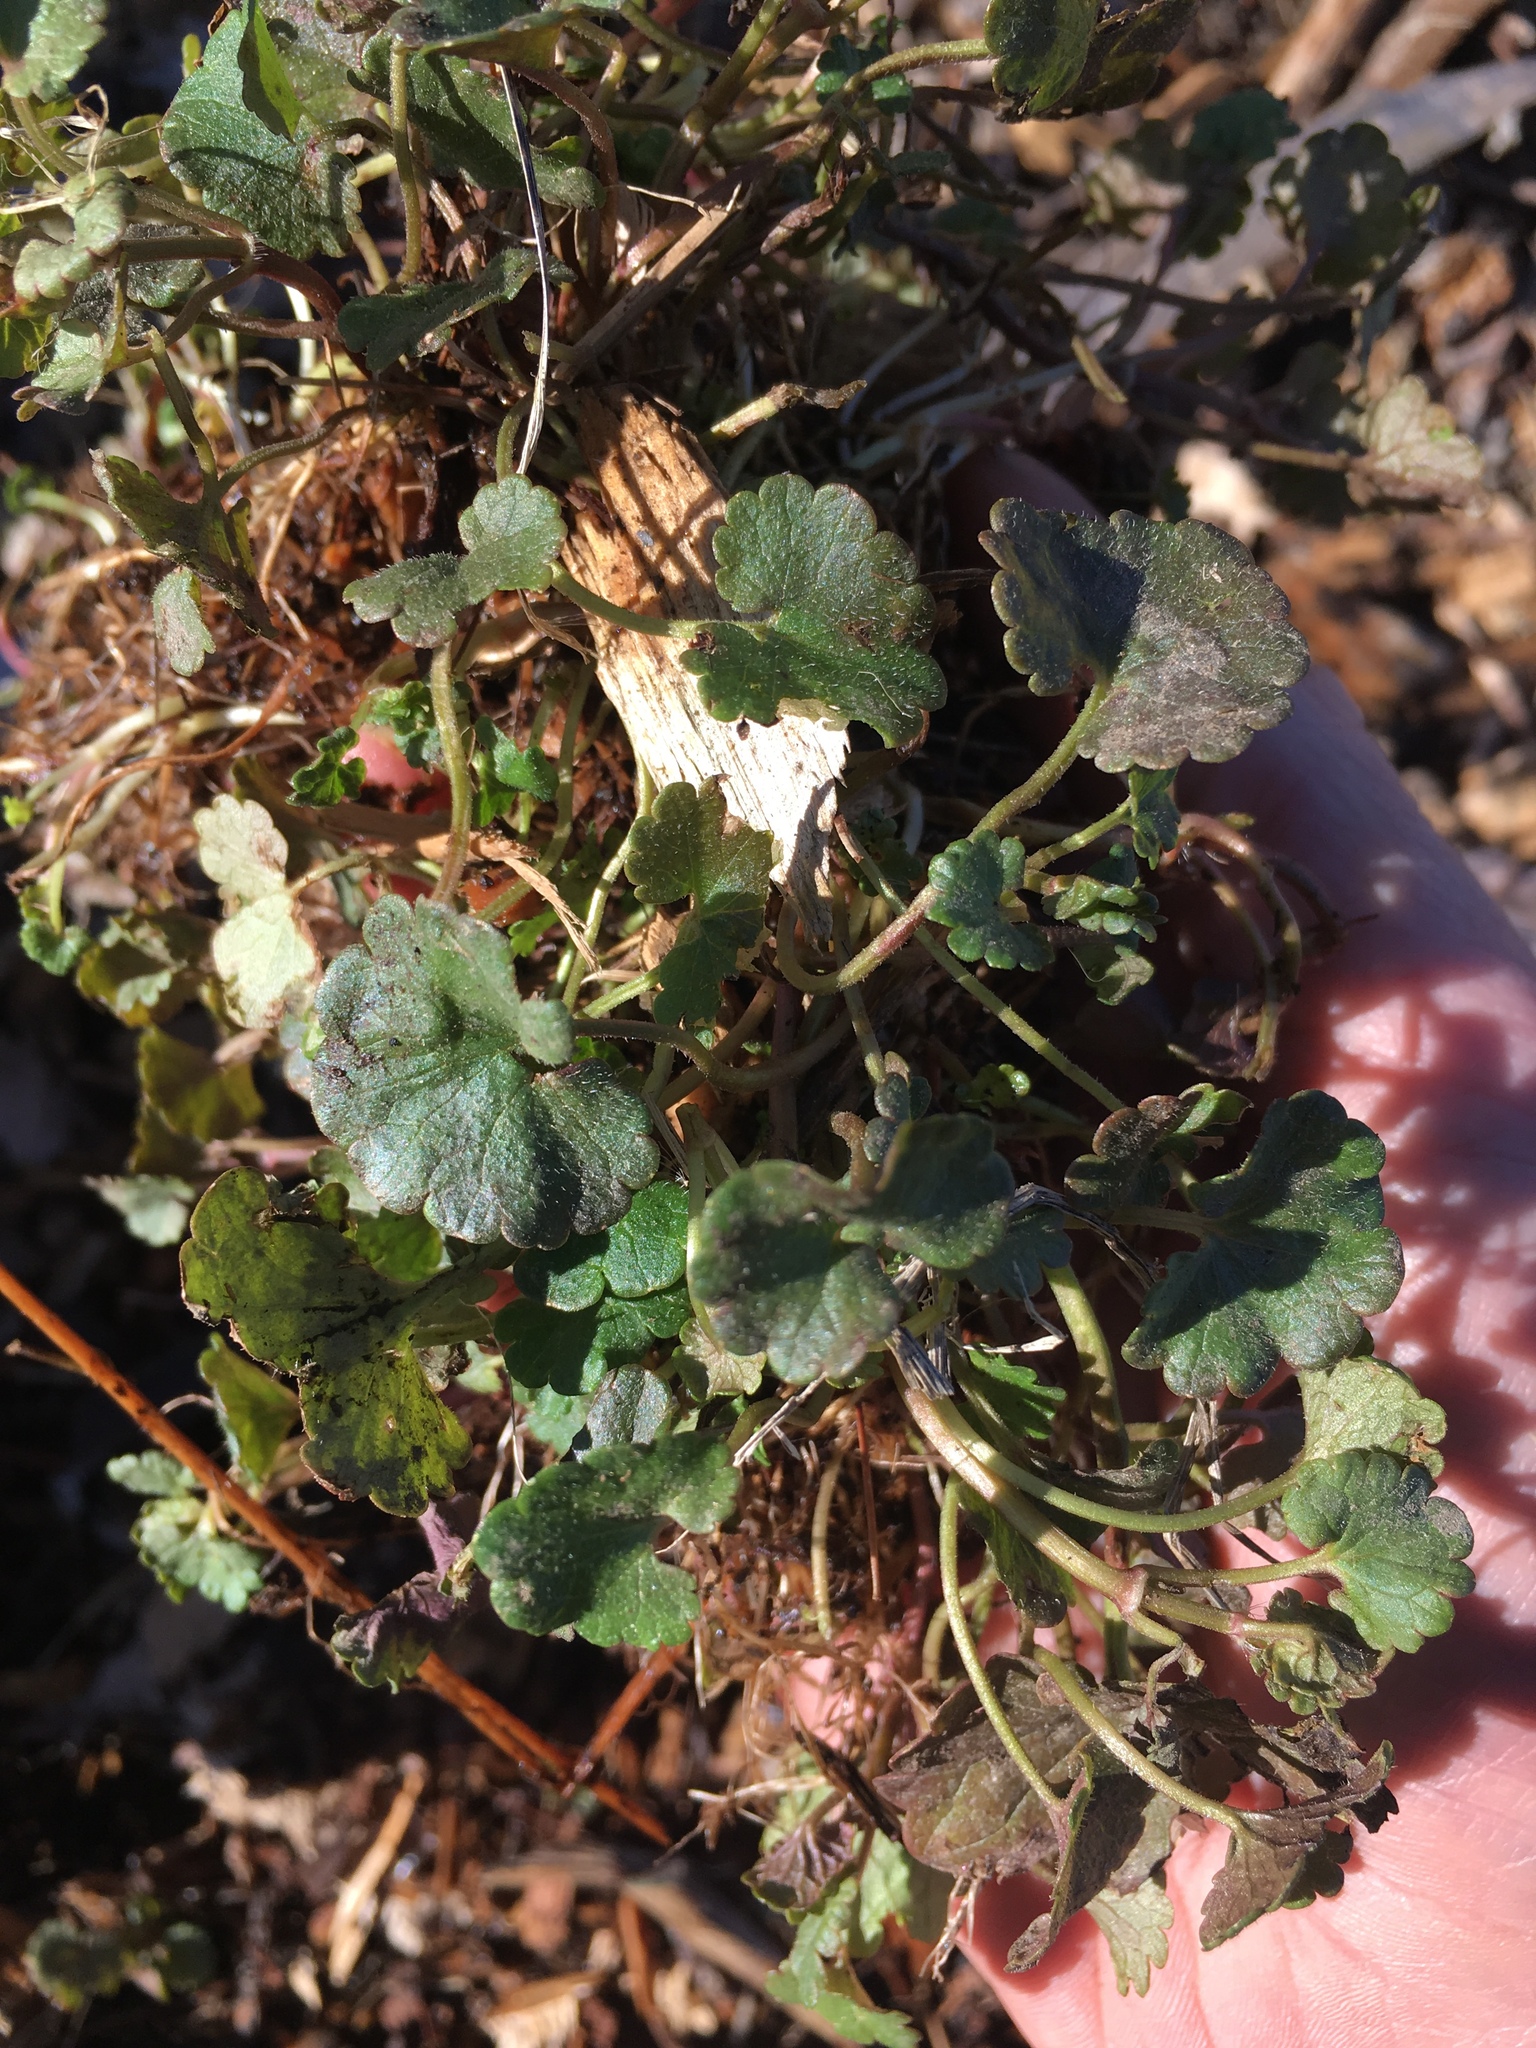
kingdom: Plantae
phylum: Tracheophyta
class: Magnoliopsida
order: Lamiales
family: Lamiaceae
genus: Glechoma
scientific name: Glechoma hederacea
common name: Ground ivy
